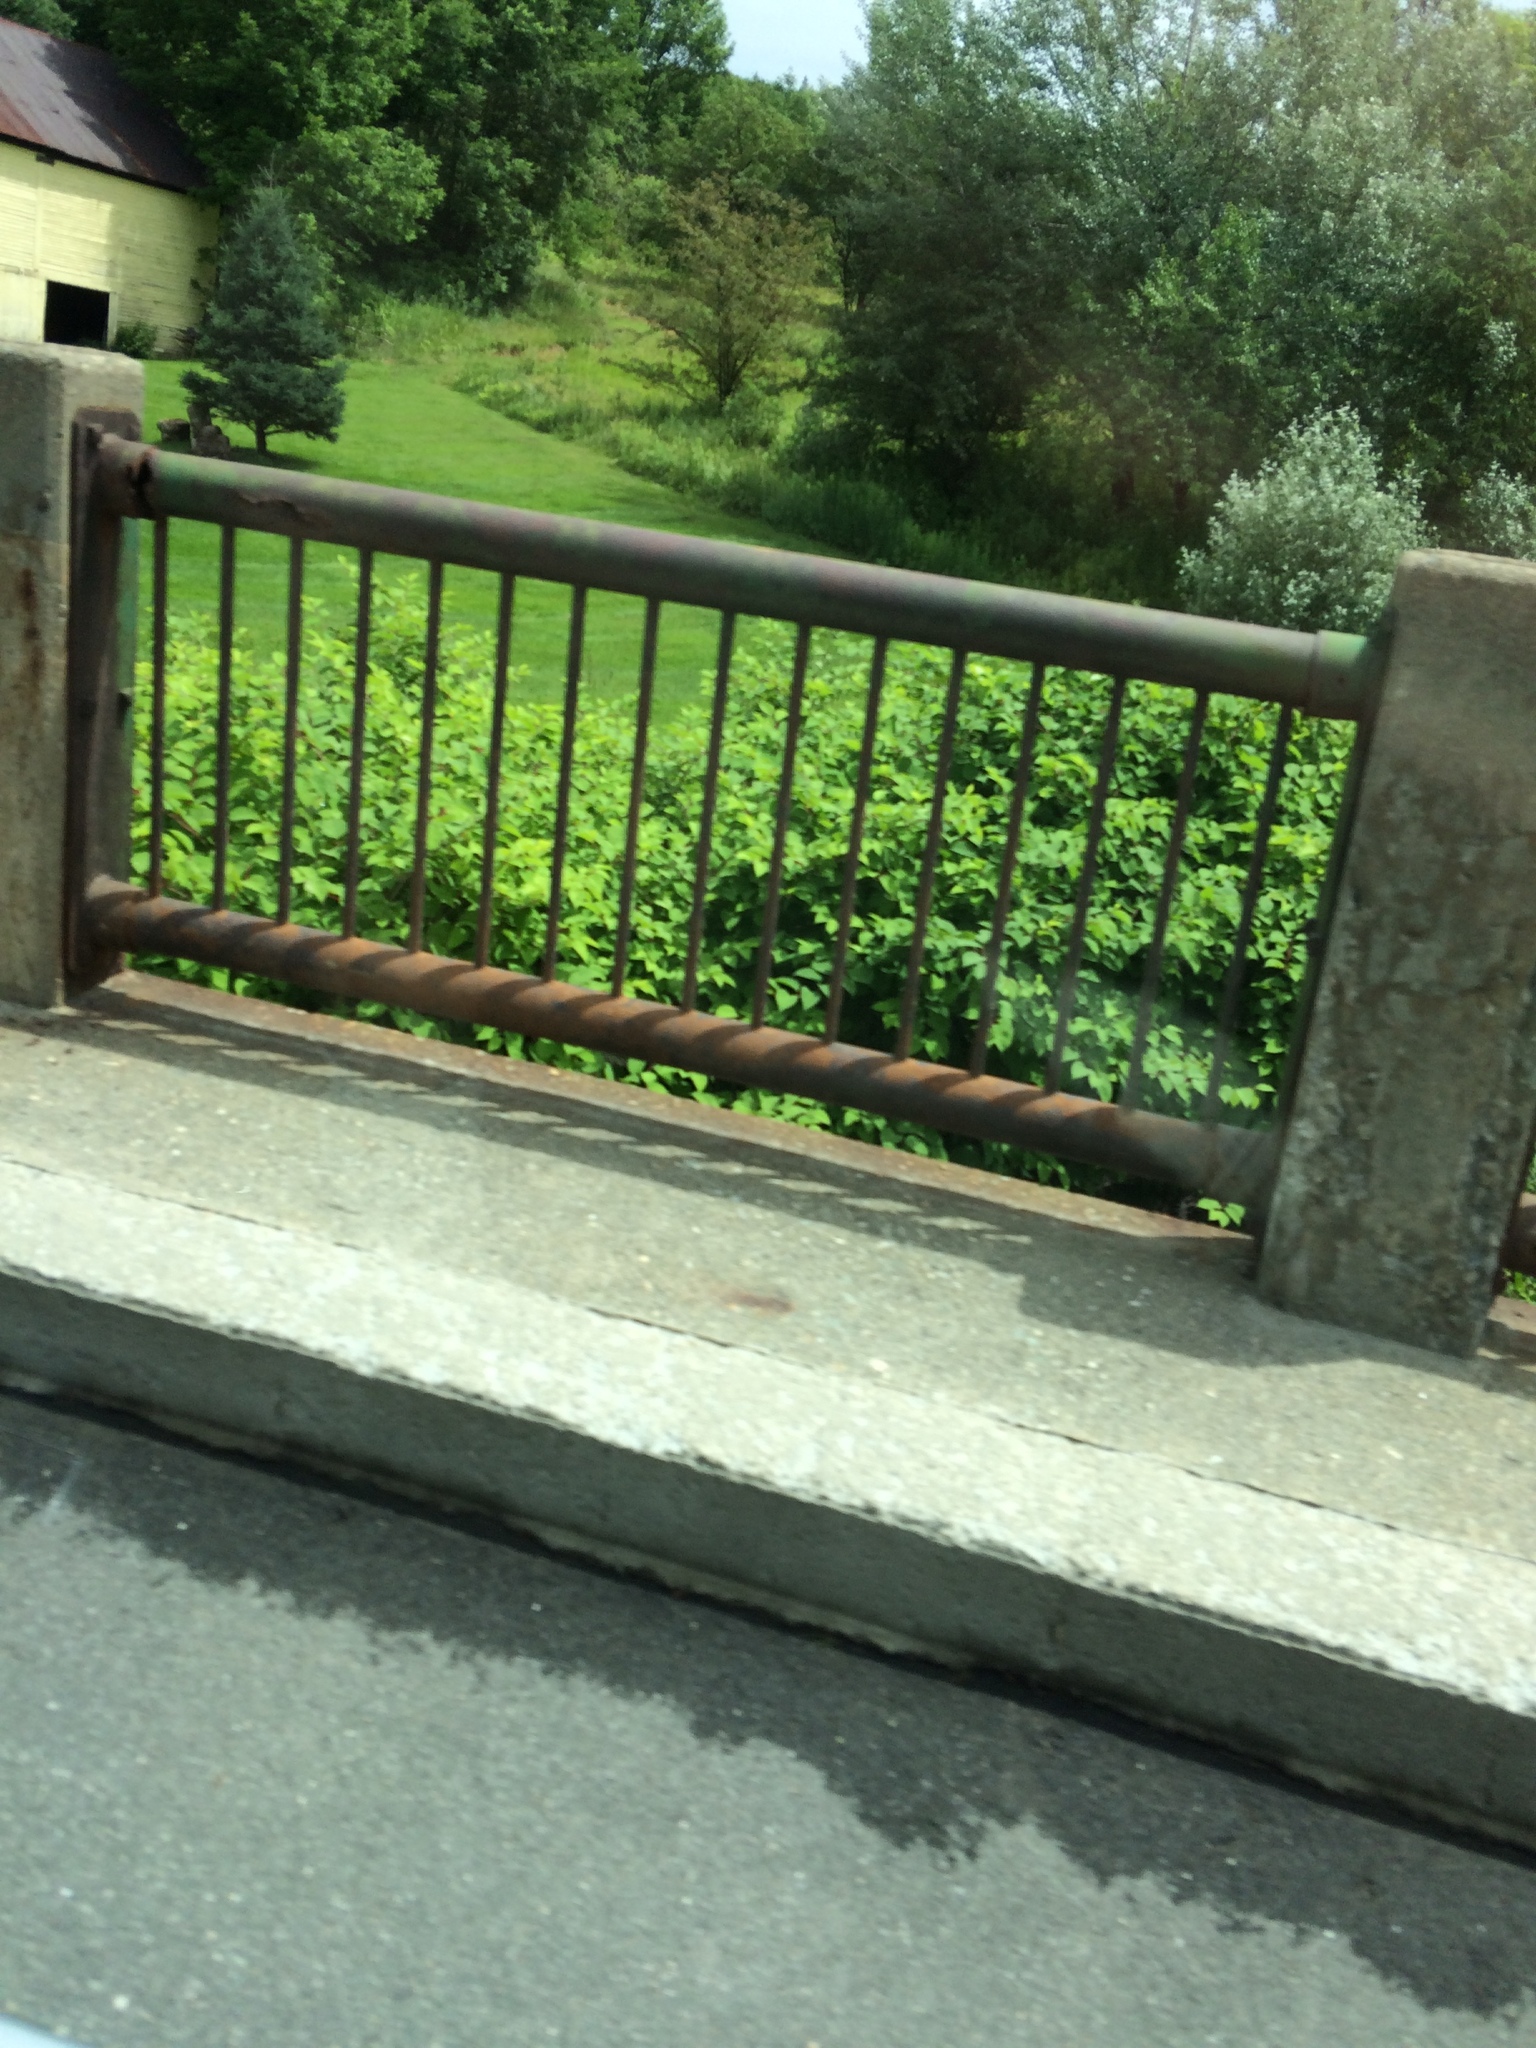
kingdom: Plantae
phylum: Tracheophyta
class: Magnoliopsida
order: Caryophyllales
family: Polygonaceae
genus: Reynoutria
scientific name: Reynoutria japonica
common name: Japanese knotweed
